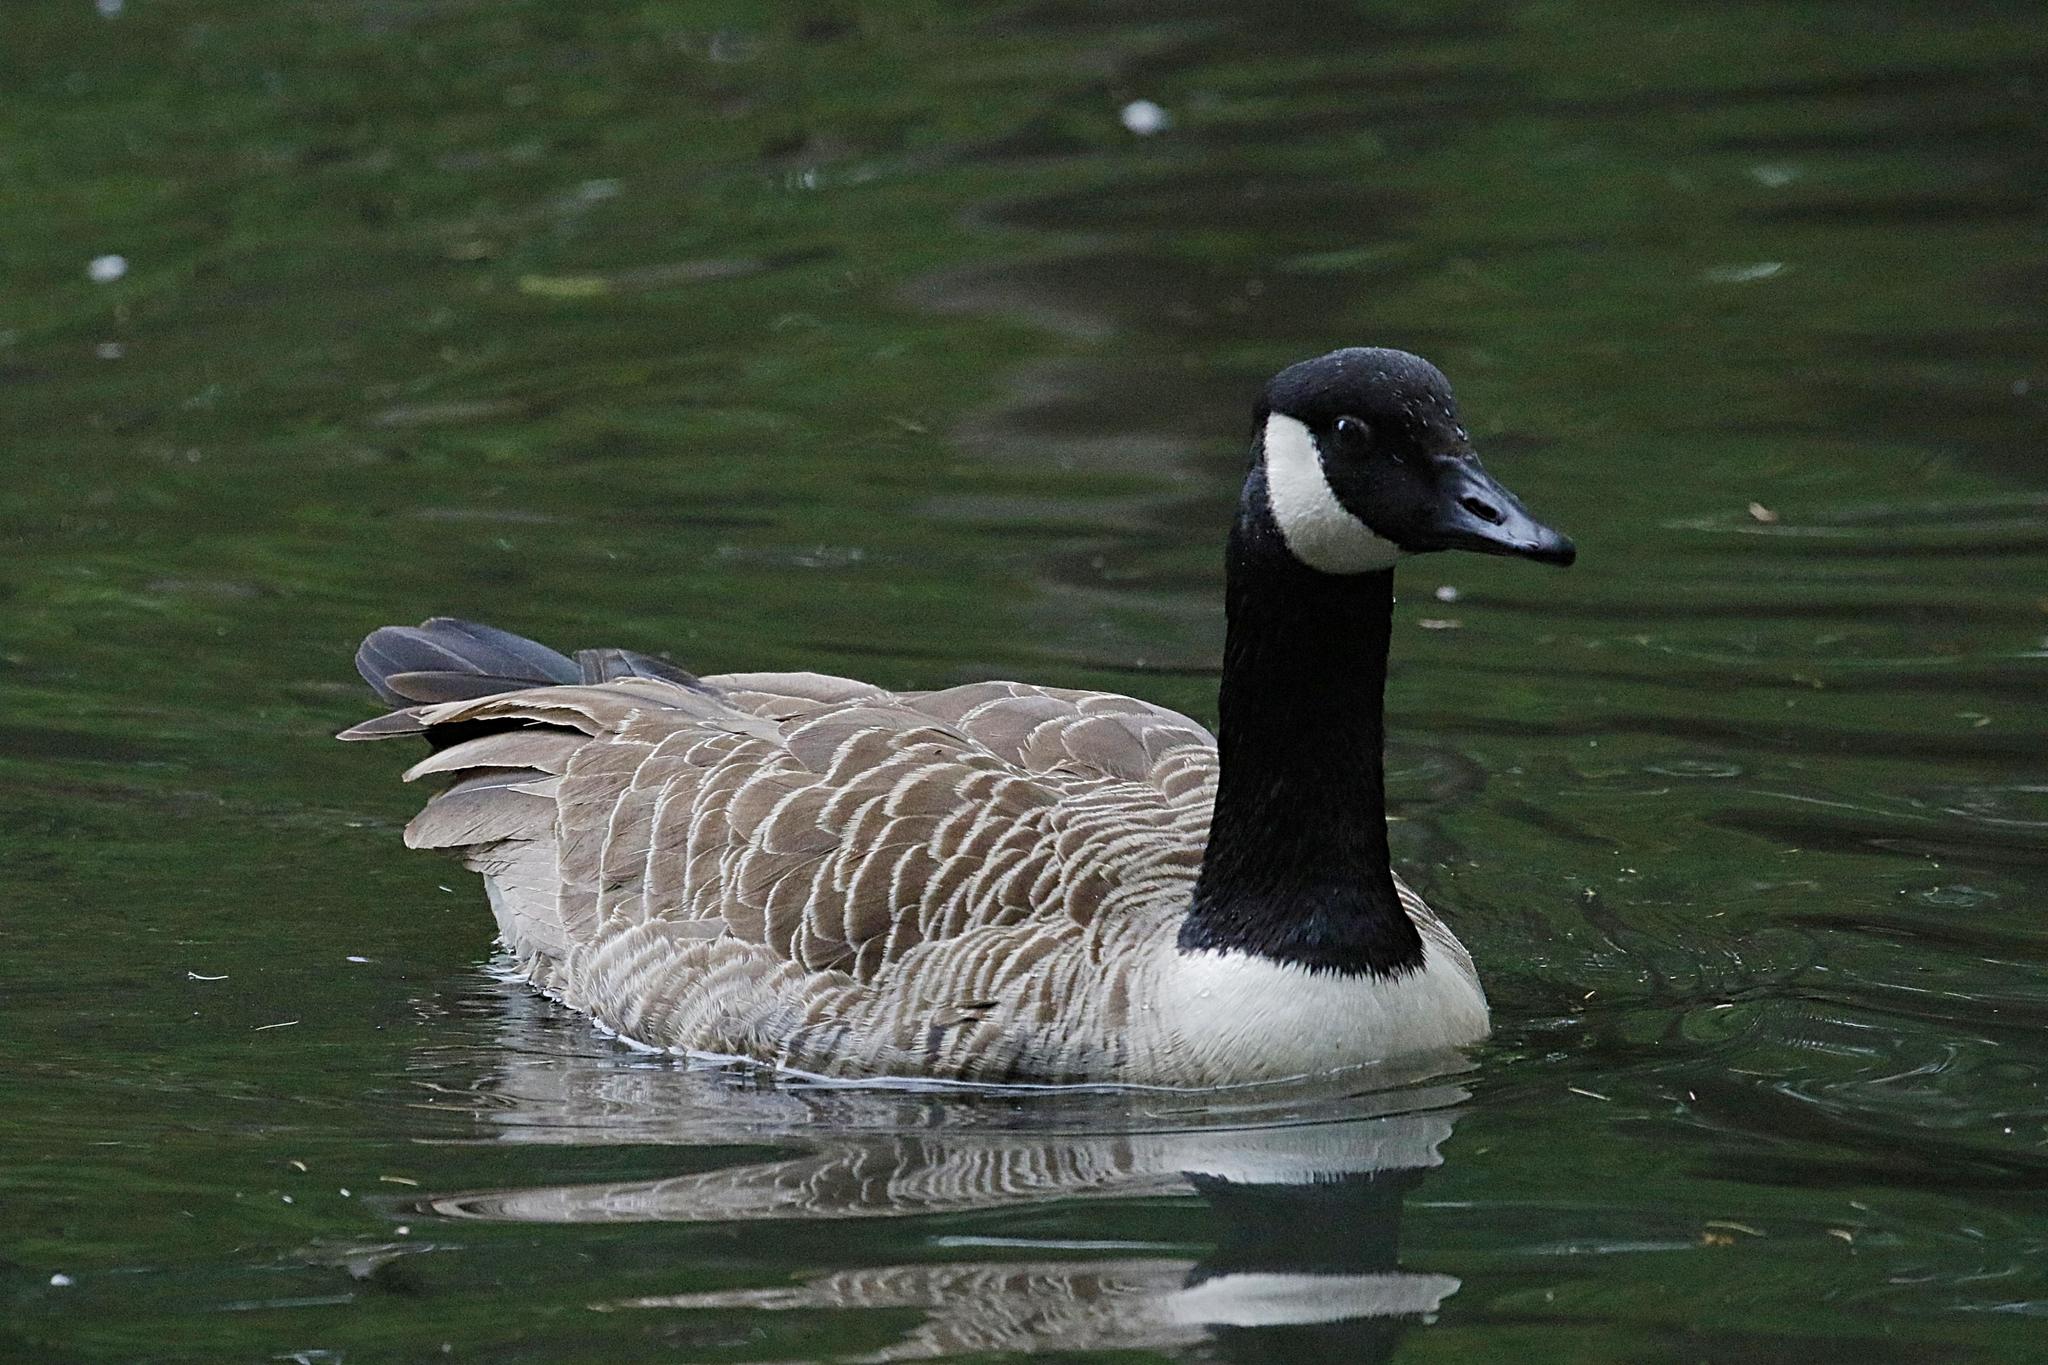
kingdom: Animalia
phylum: Chordata
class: Aves
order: Anseriformes
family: Anatidae
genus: Branta
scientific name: Branta canadensis
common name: Canada goose
